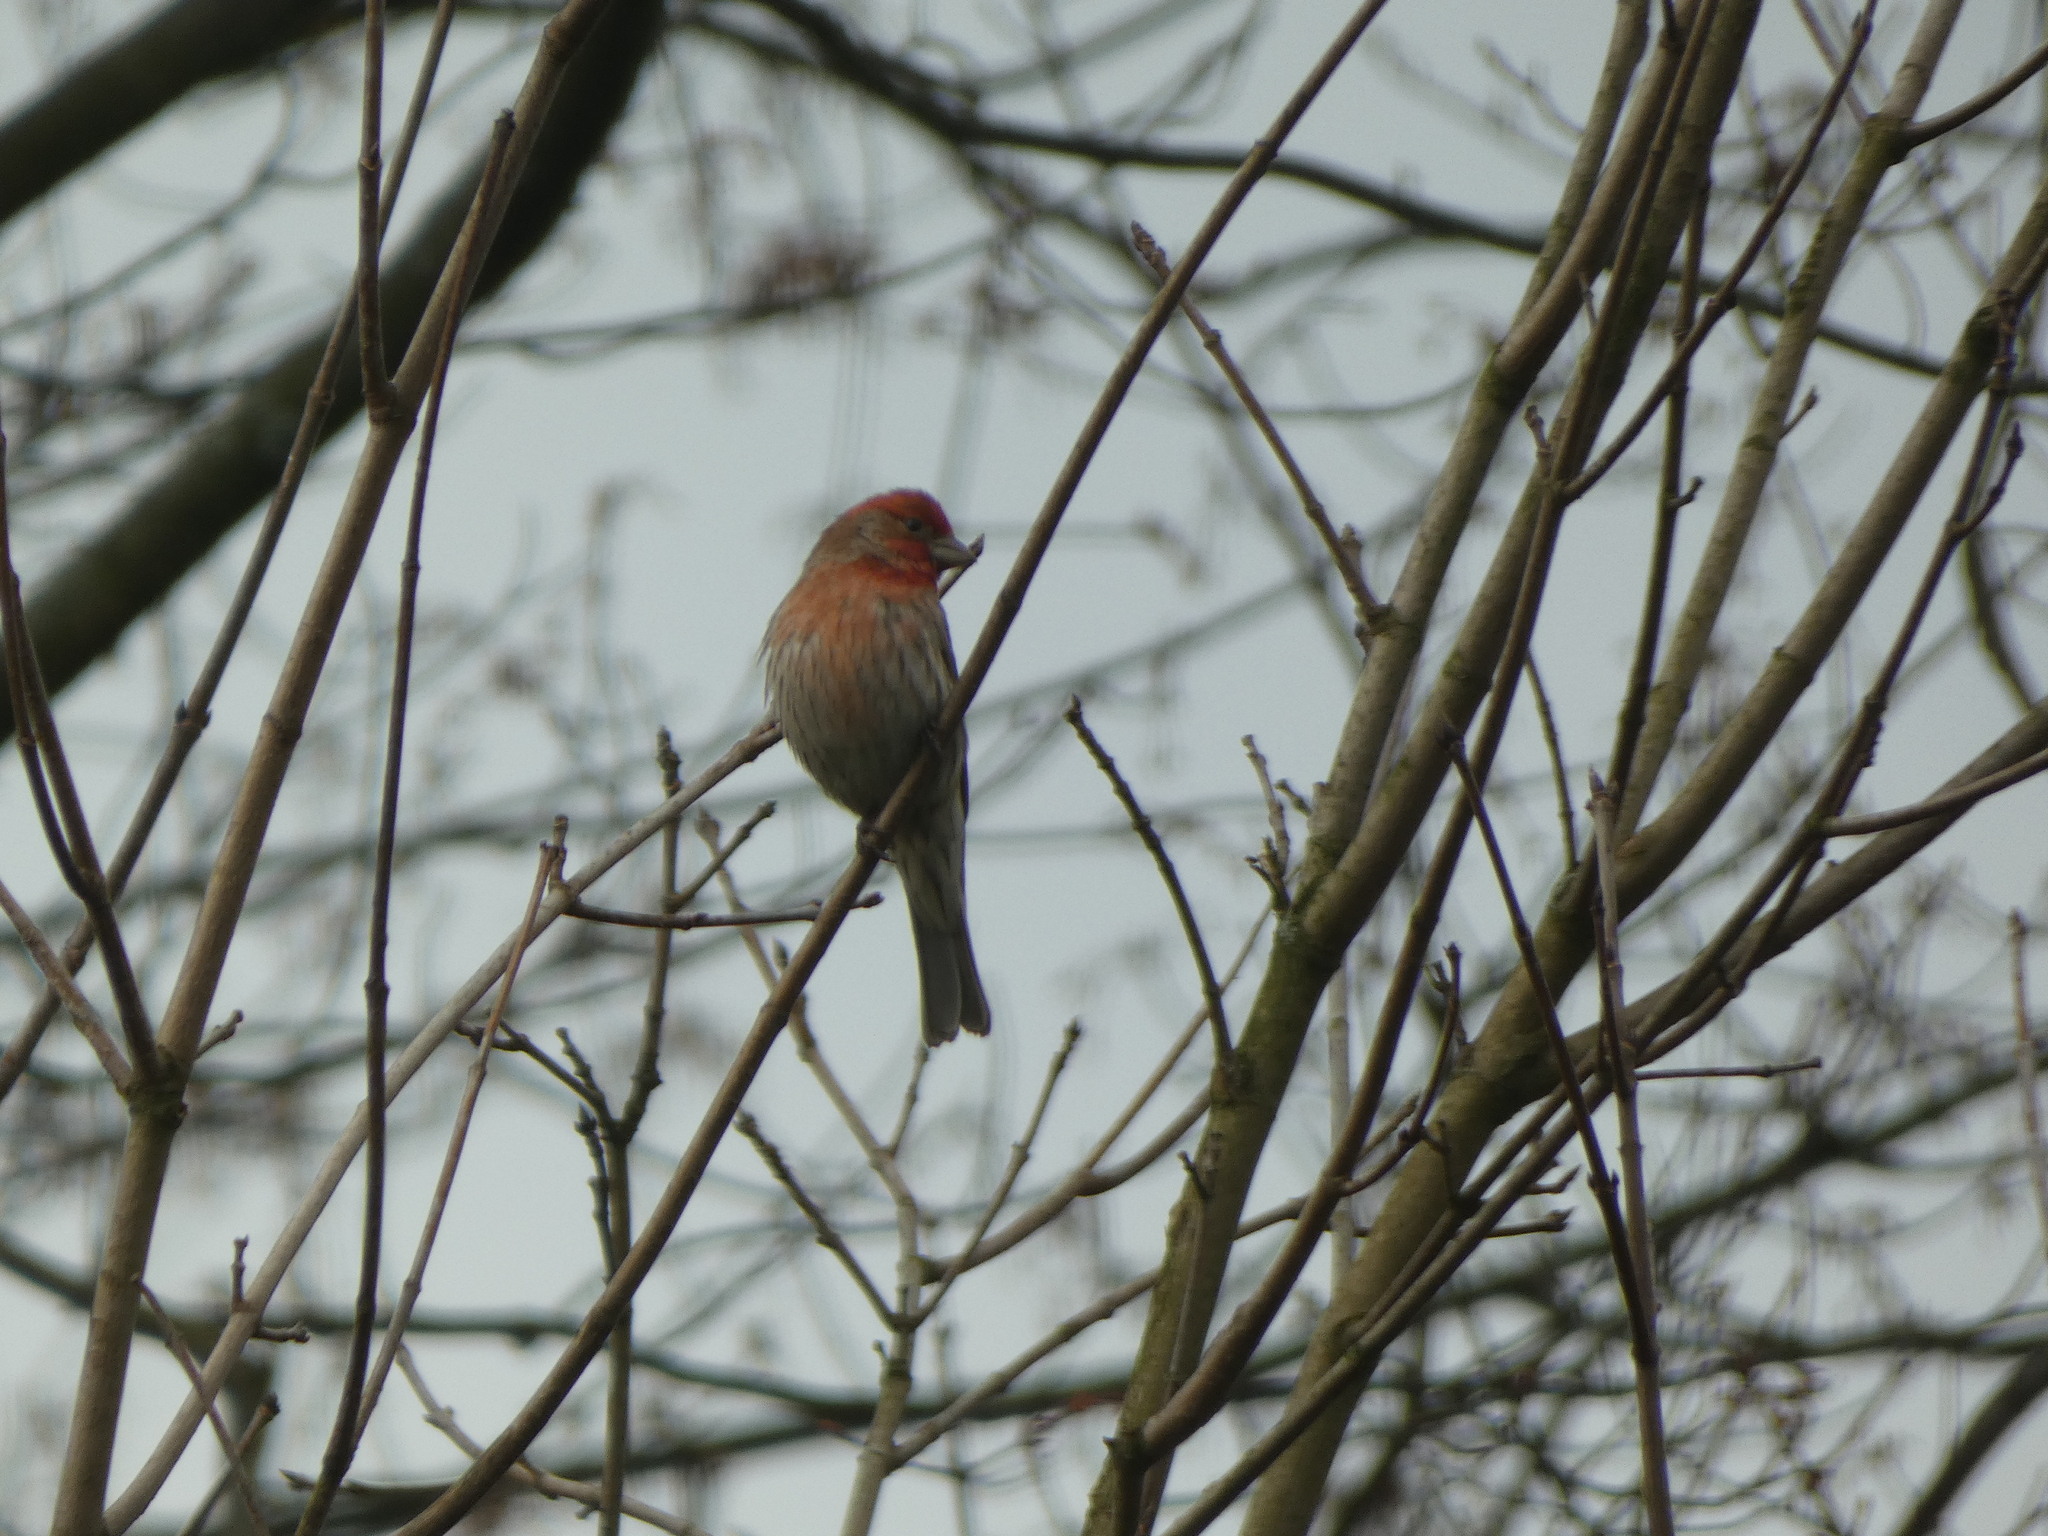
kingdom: Animalia
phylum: Chordata
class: Aves
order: Passeriformes
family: Fringillidae
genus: Haemorhous
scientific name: Haemorhous mexicanus
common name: House finch
